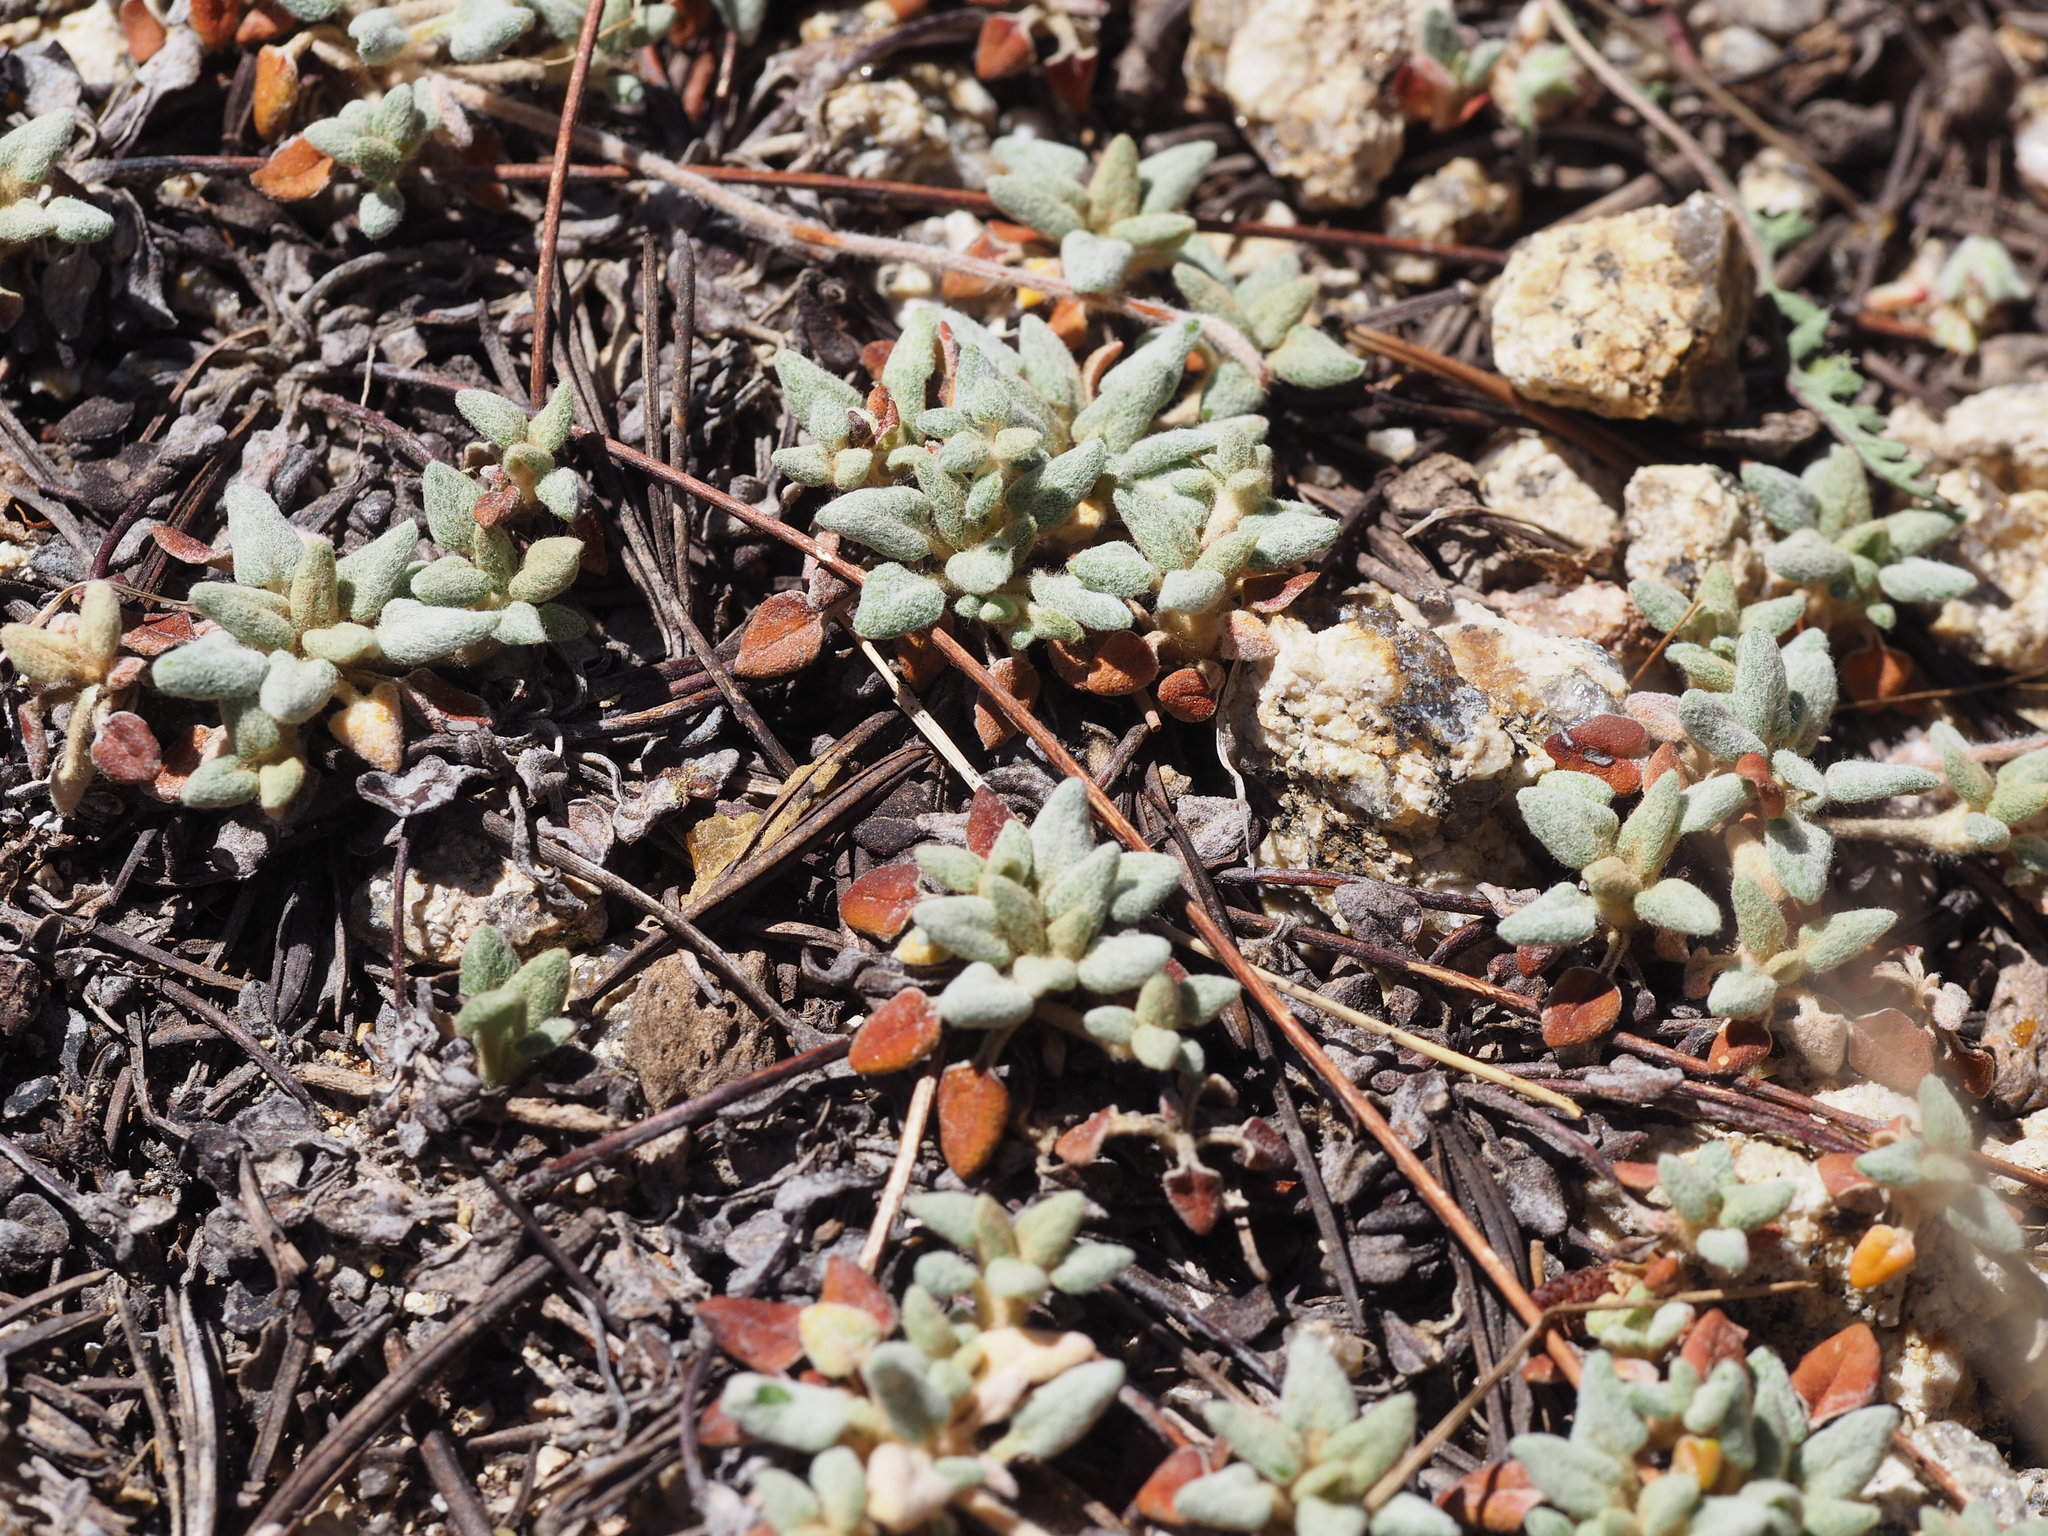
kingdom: Plantae
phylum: Tracheophyta
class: Magnoliopsida
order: Caryophyllales
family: Polygonaceae
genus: Eriogonum
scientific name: Eriogonum polypodum
